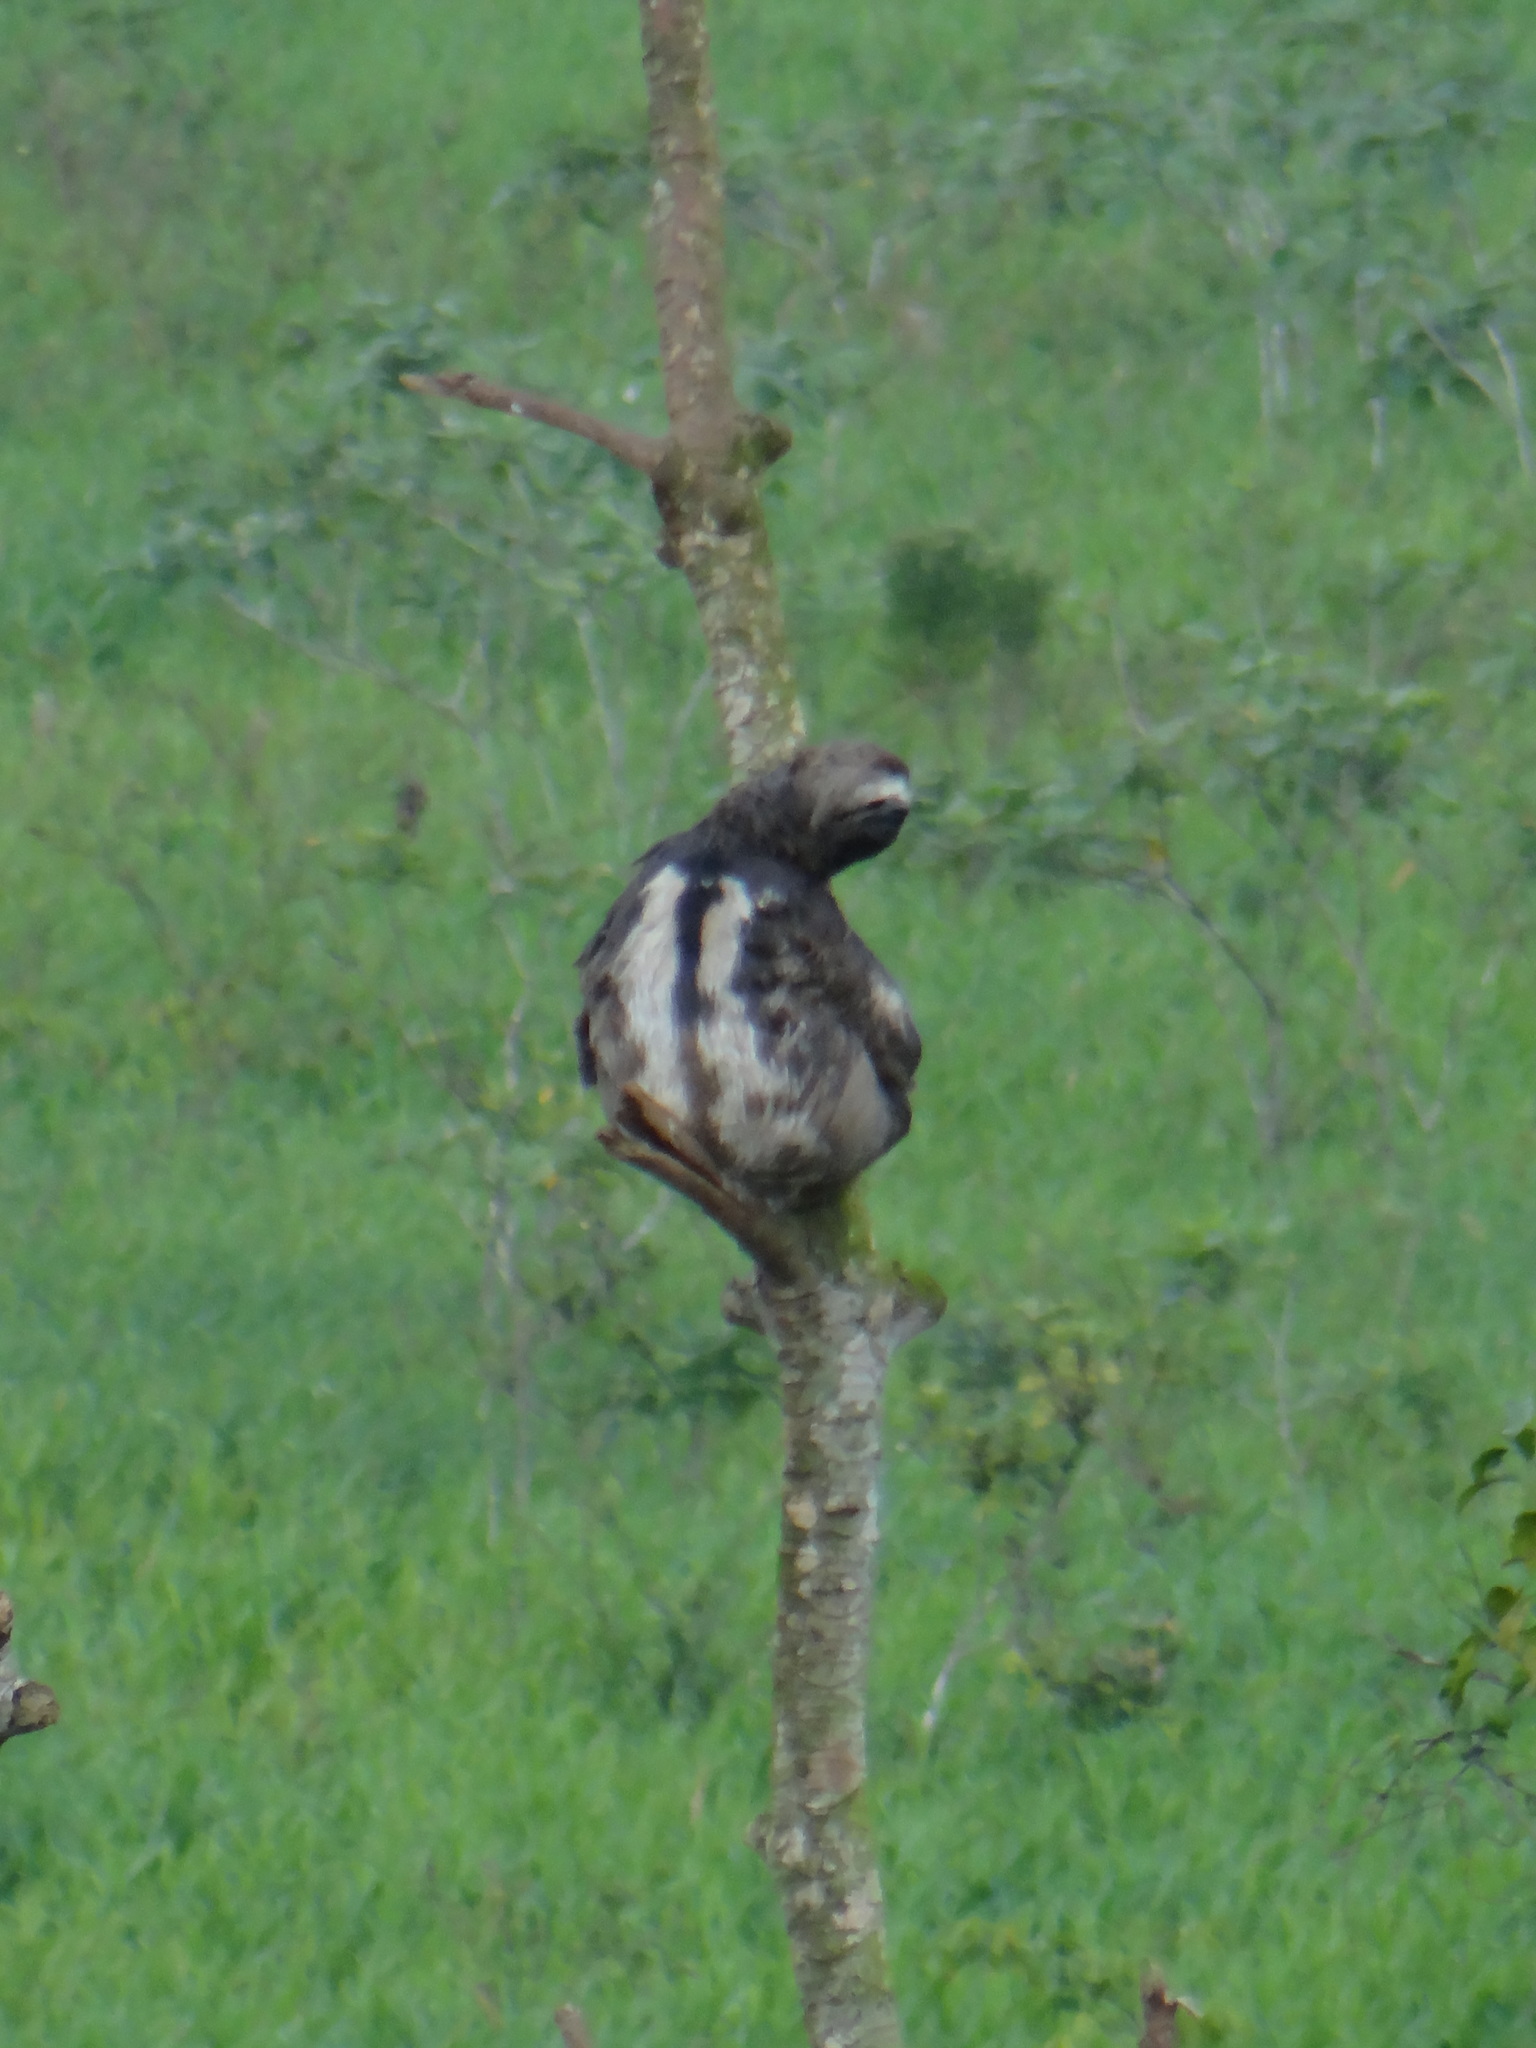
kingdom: Animalia
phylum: Chordata
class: Mammalia
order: Pilosa
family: Bradypodidae
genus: Bradypus
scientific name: Bradypus variegatus
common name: Brown-throated three-toed sloth
